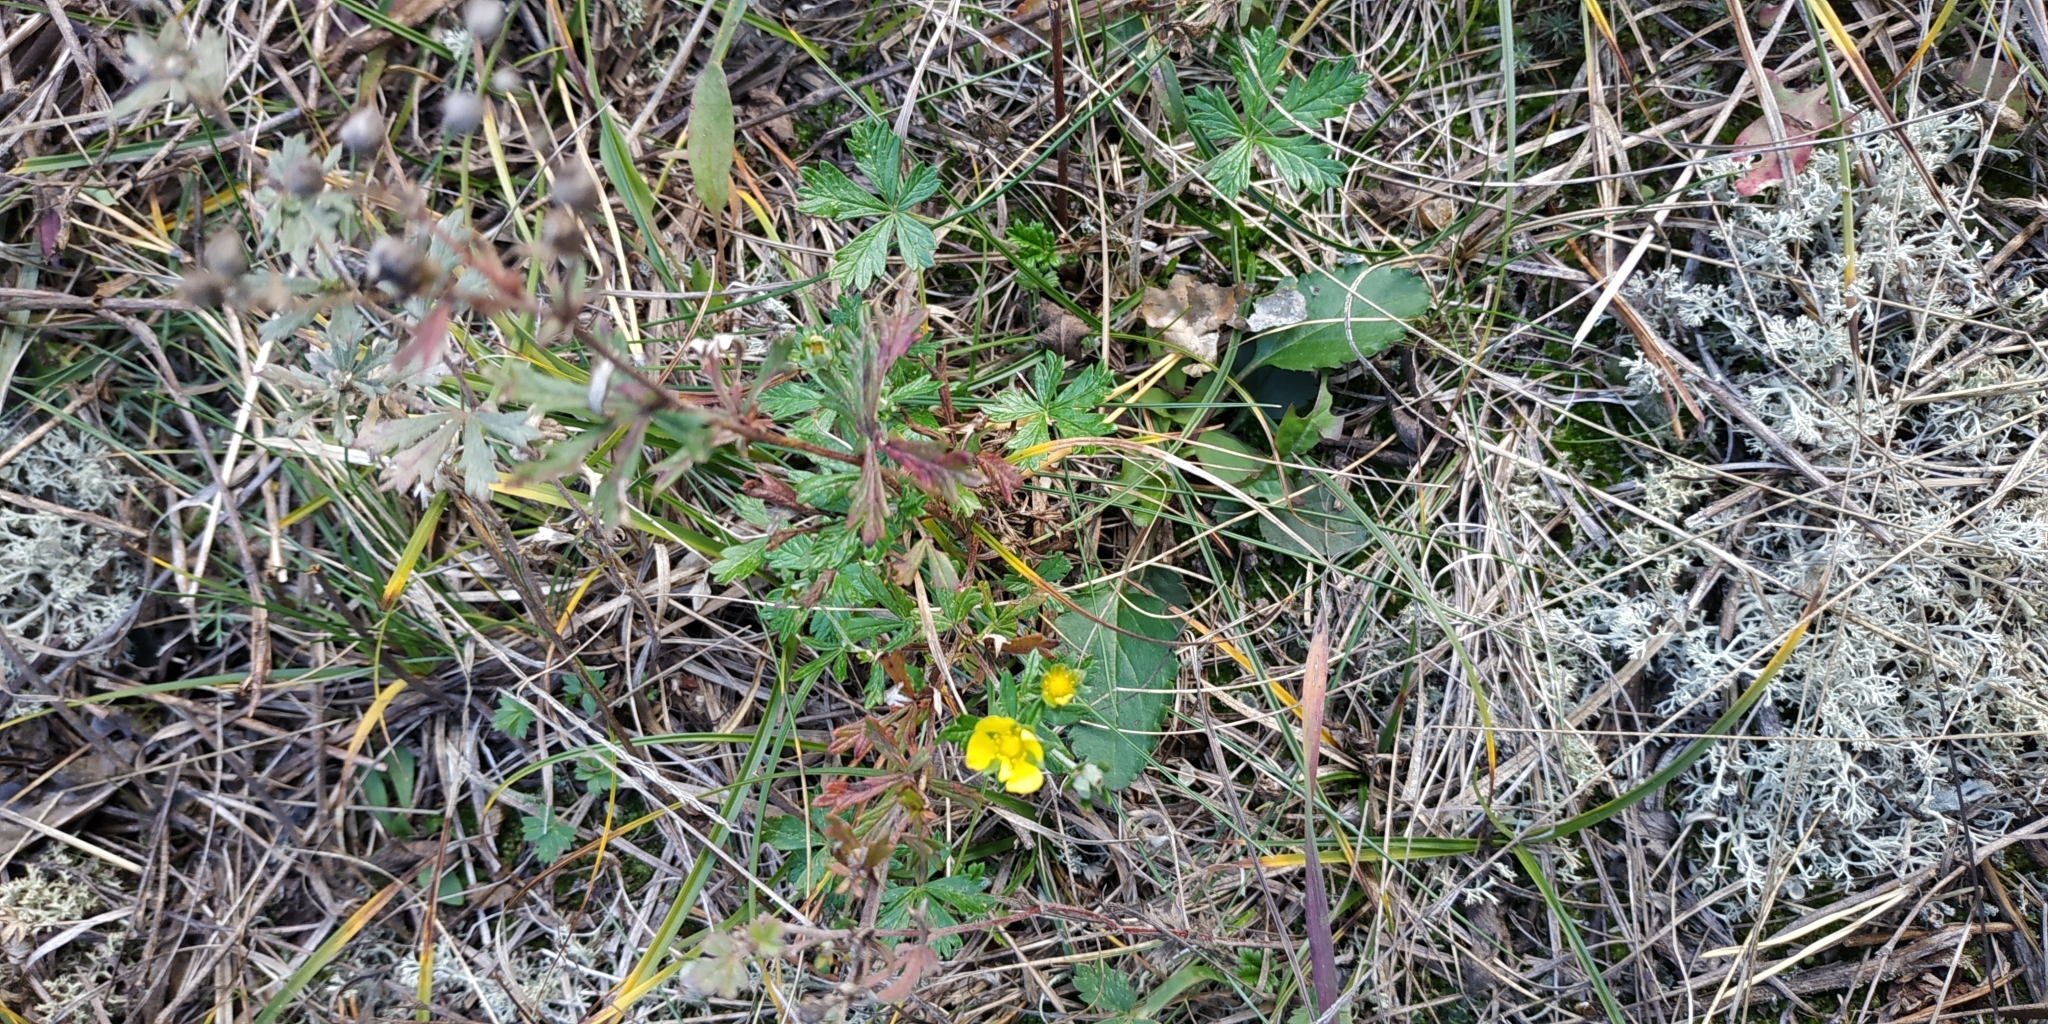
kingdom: Plantae
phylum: Tracheophyta
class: Magnoliopsida
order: Rosales
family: Rosaceae
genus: Potentilla
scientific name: Potentilla argentea
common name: Hoary cinquefoil
